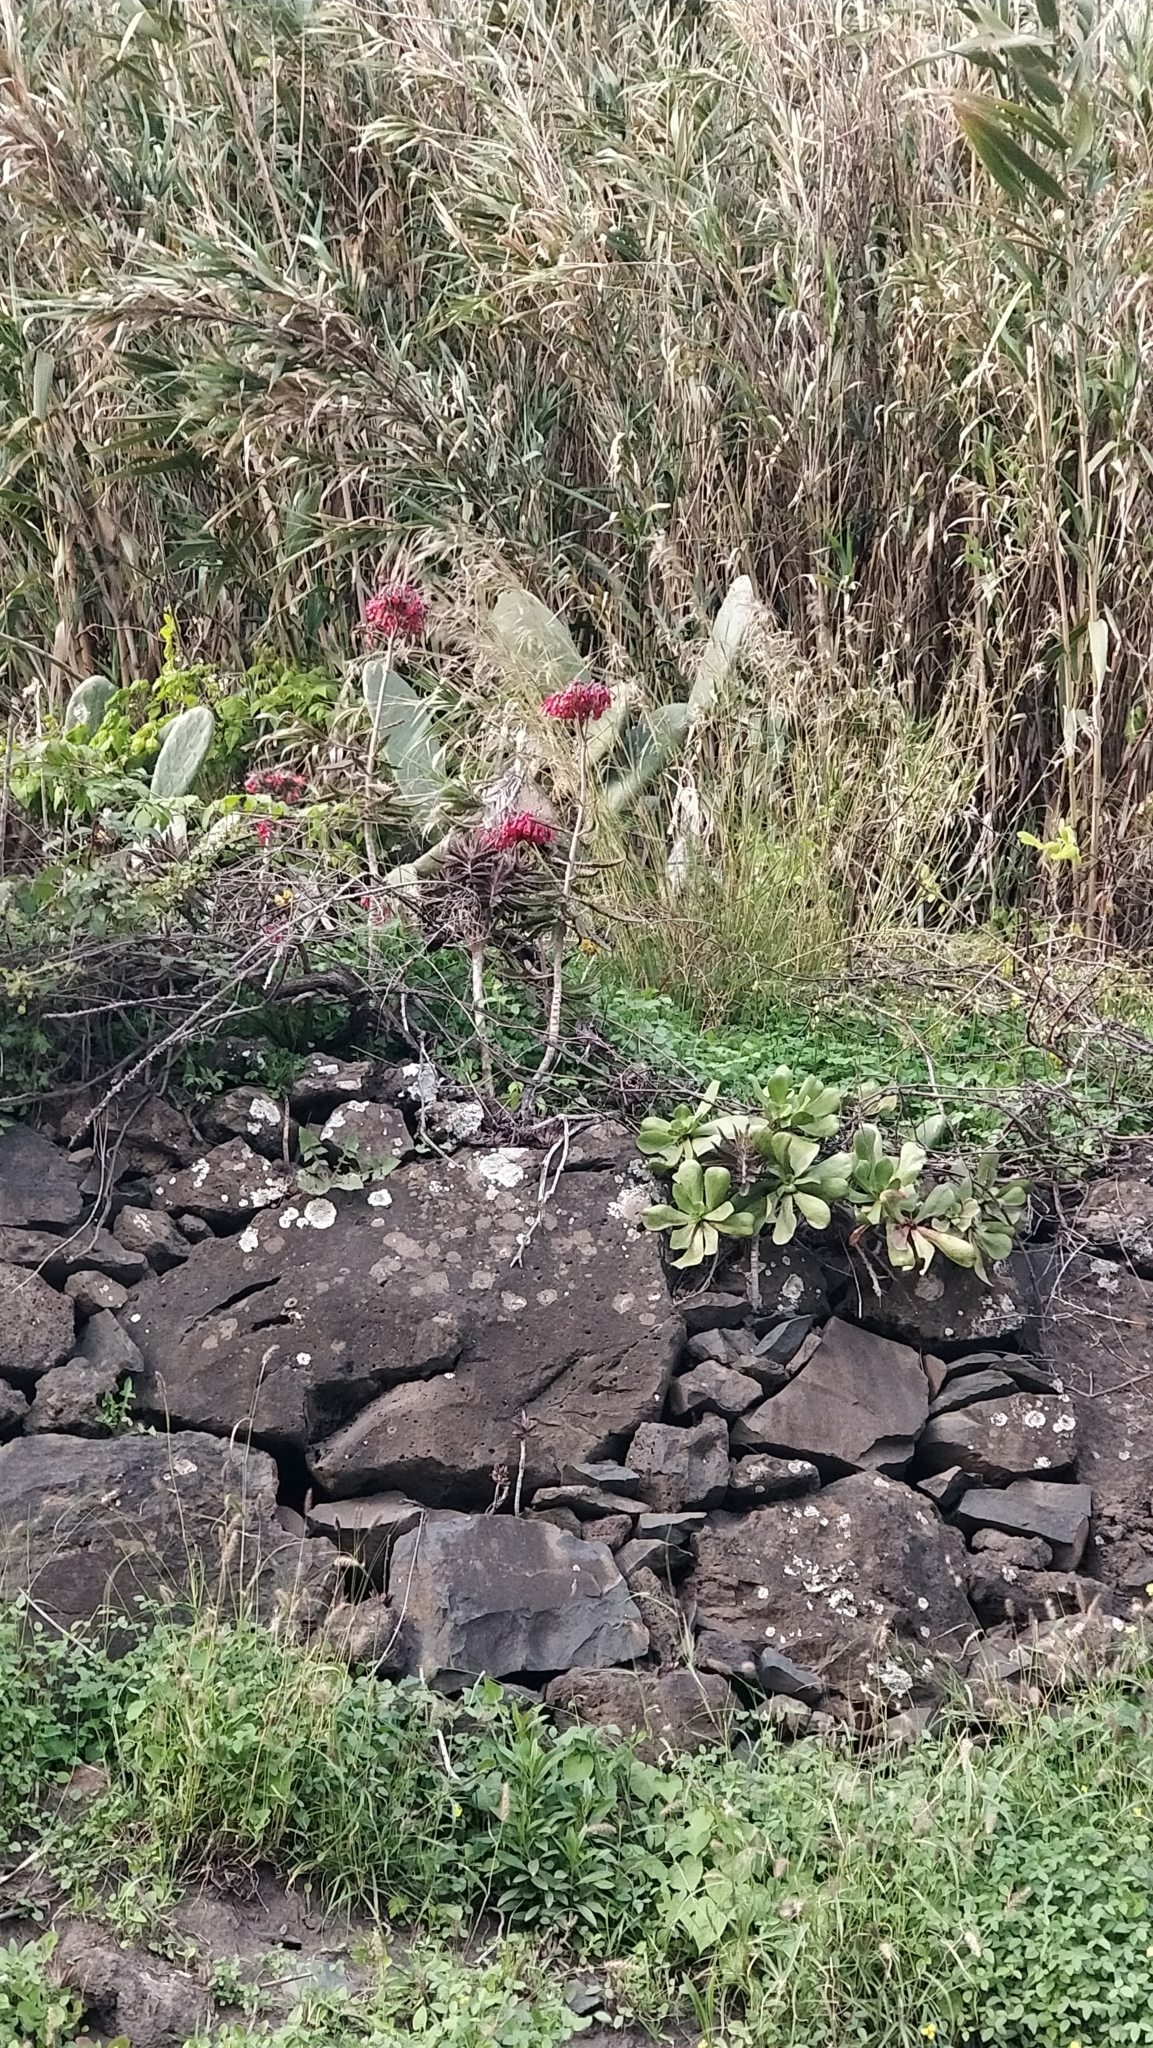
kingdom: Plantae
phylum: Tracheophyta
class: Magnoliopsida
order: Saxifragales
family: Crassulaceae
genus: Kalanchoe
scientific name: Kalanchoe houghtonii
